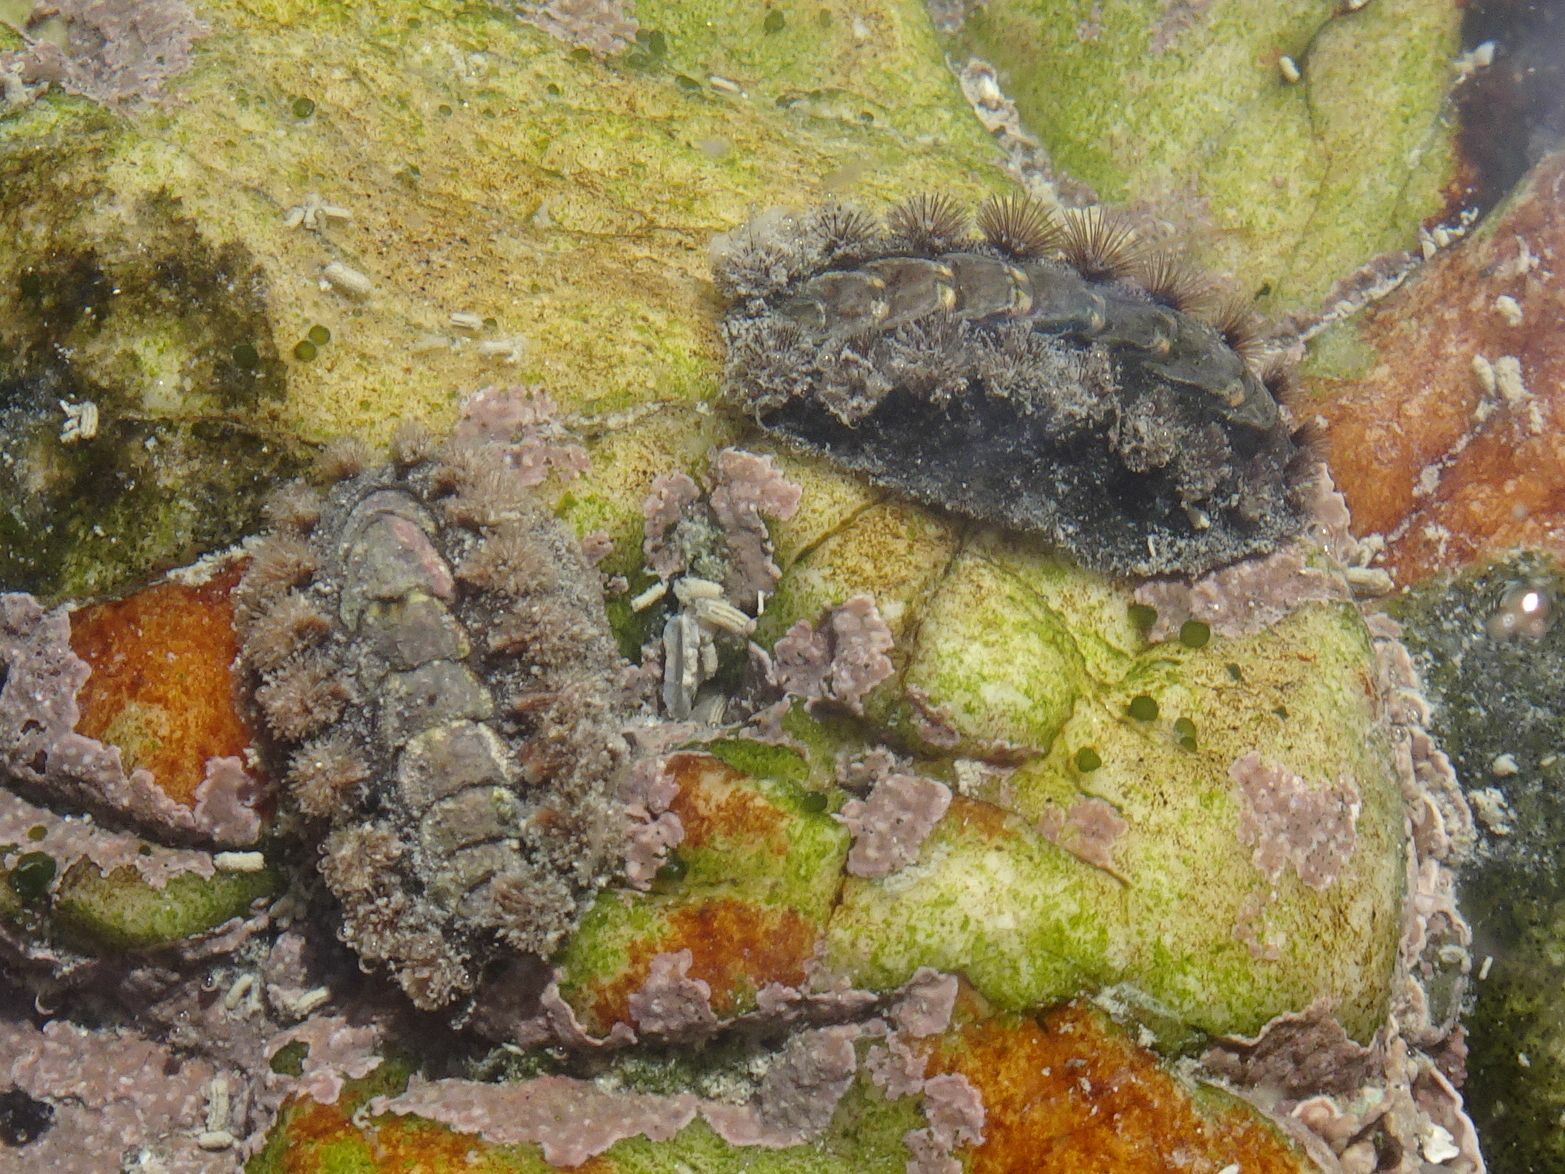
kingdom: Animalia
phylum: Mollusca
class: Polyplacophora
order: Chitonida
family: Acanthochitonidae
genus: Acanthochitona
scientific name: Acanthochitona garnoti
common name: Spiny chiton
